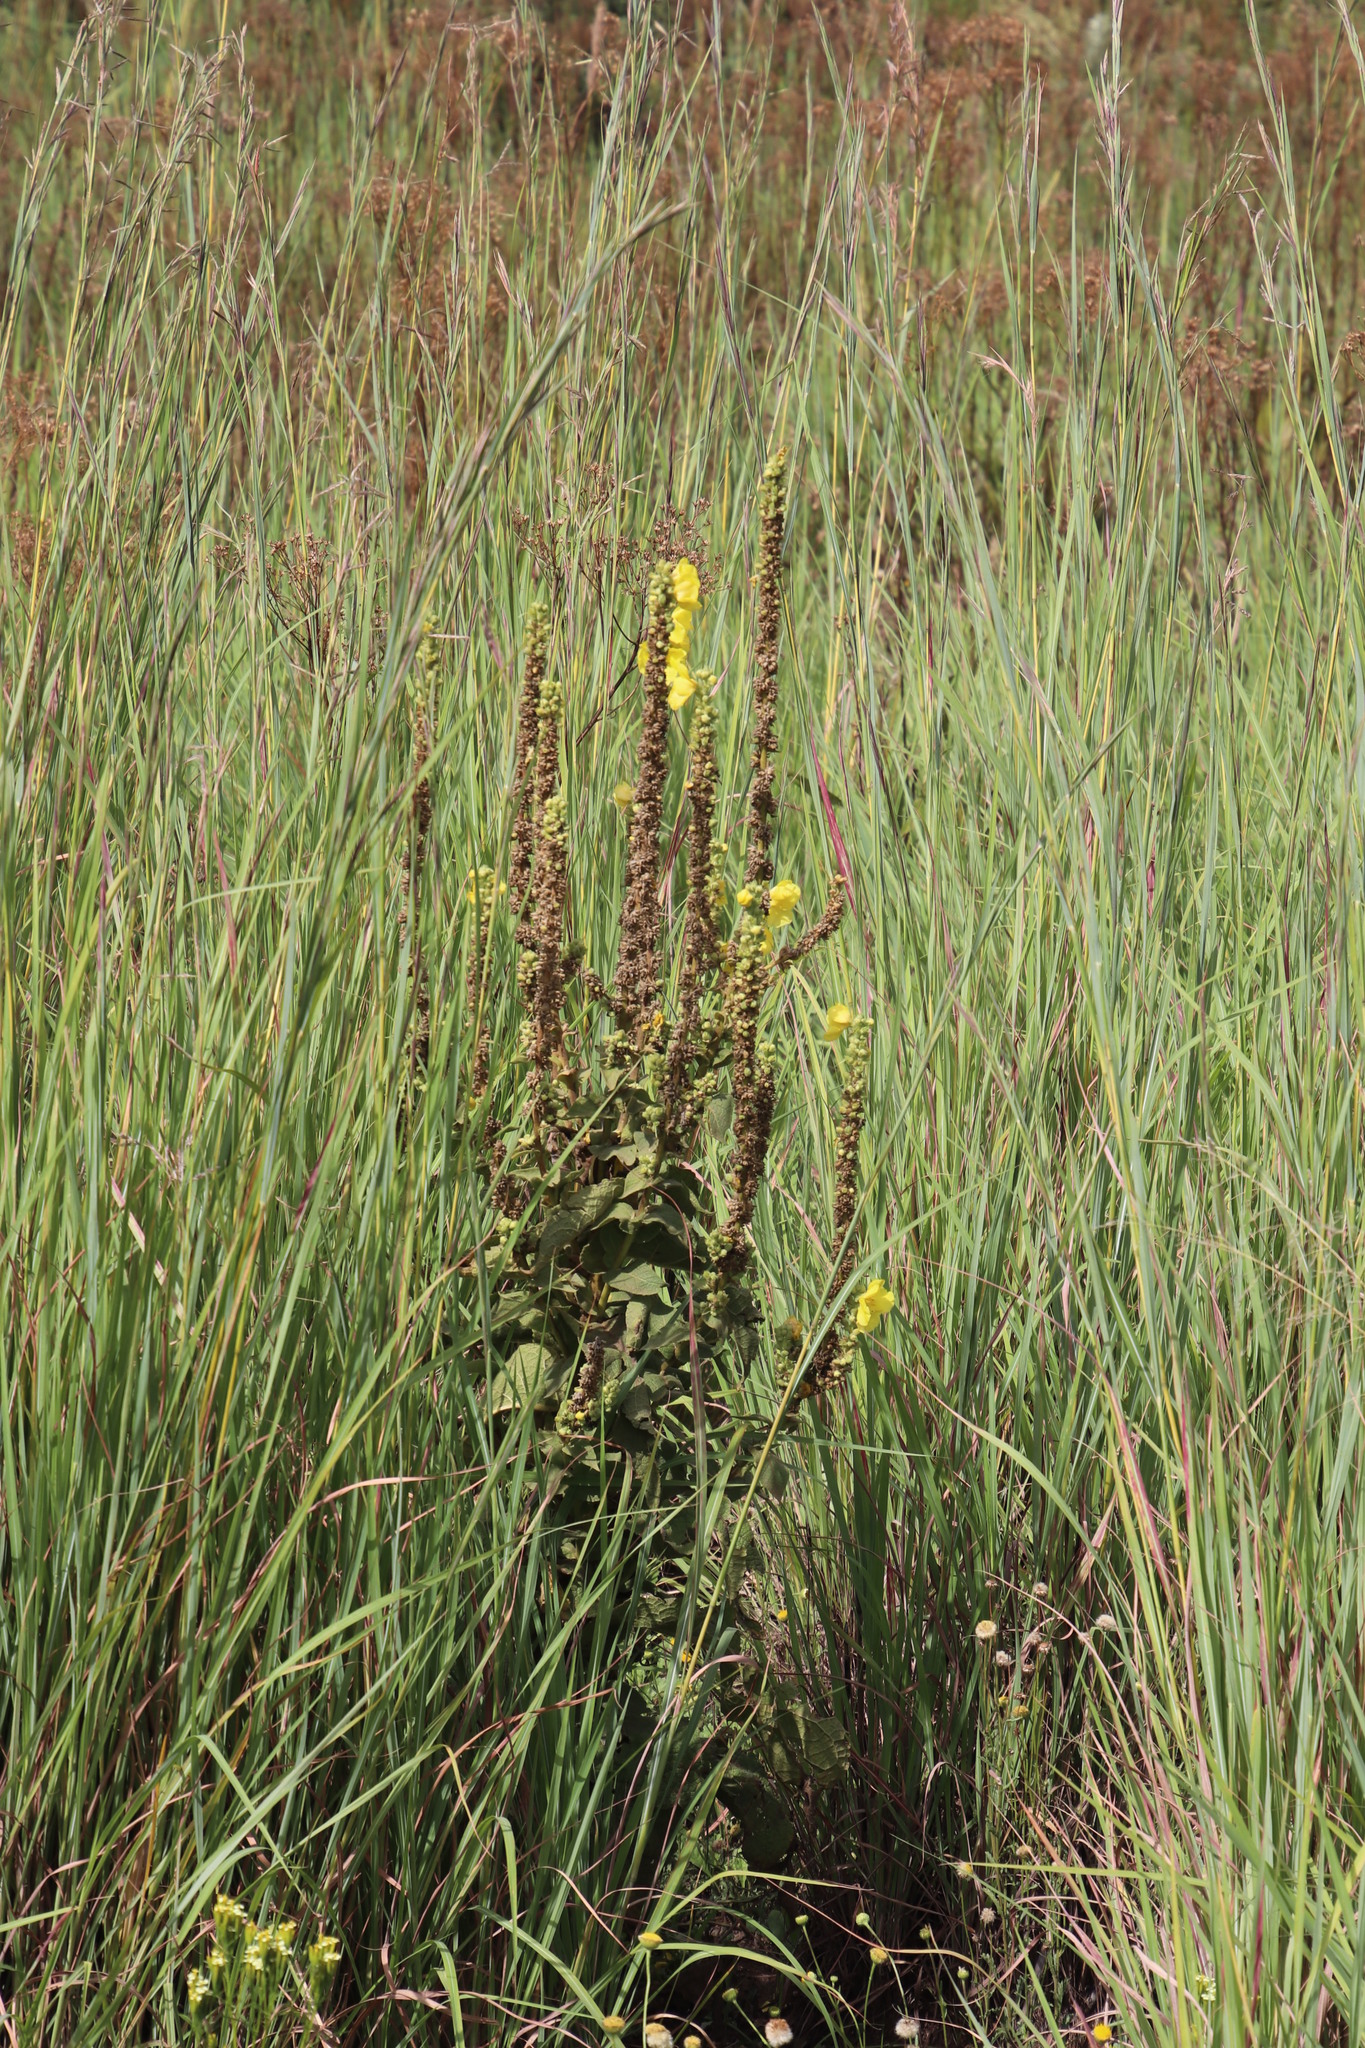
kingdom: Plantae
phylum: Tracheophyta
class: Magnoliopsida
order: Lamiales
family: Scrophulariaceae
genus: Verbascum
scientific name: Verbascum densiflorum
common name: Dense-flowered mullein
